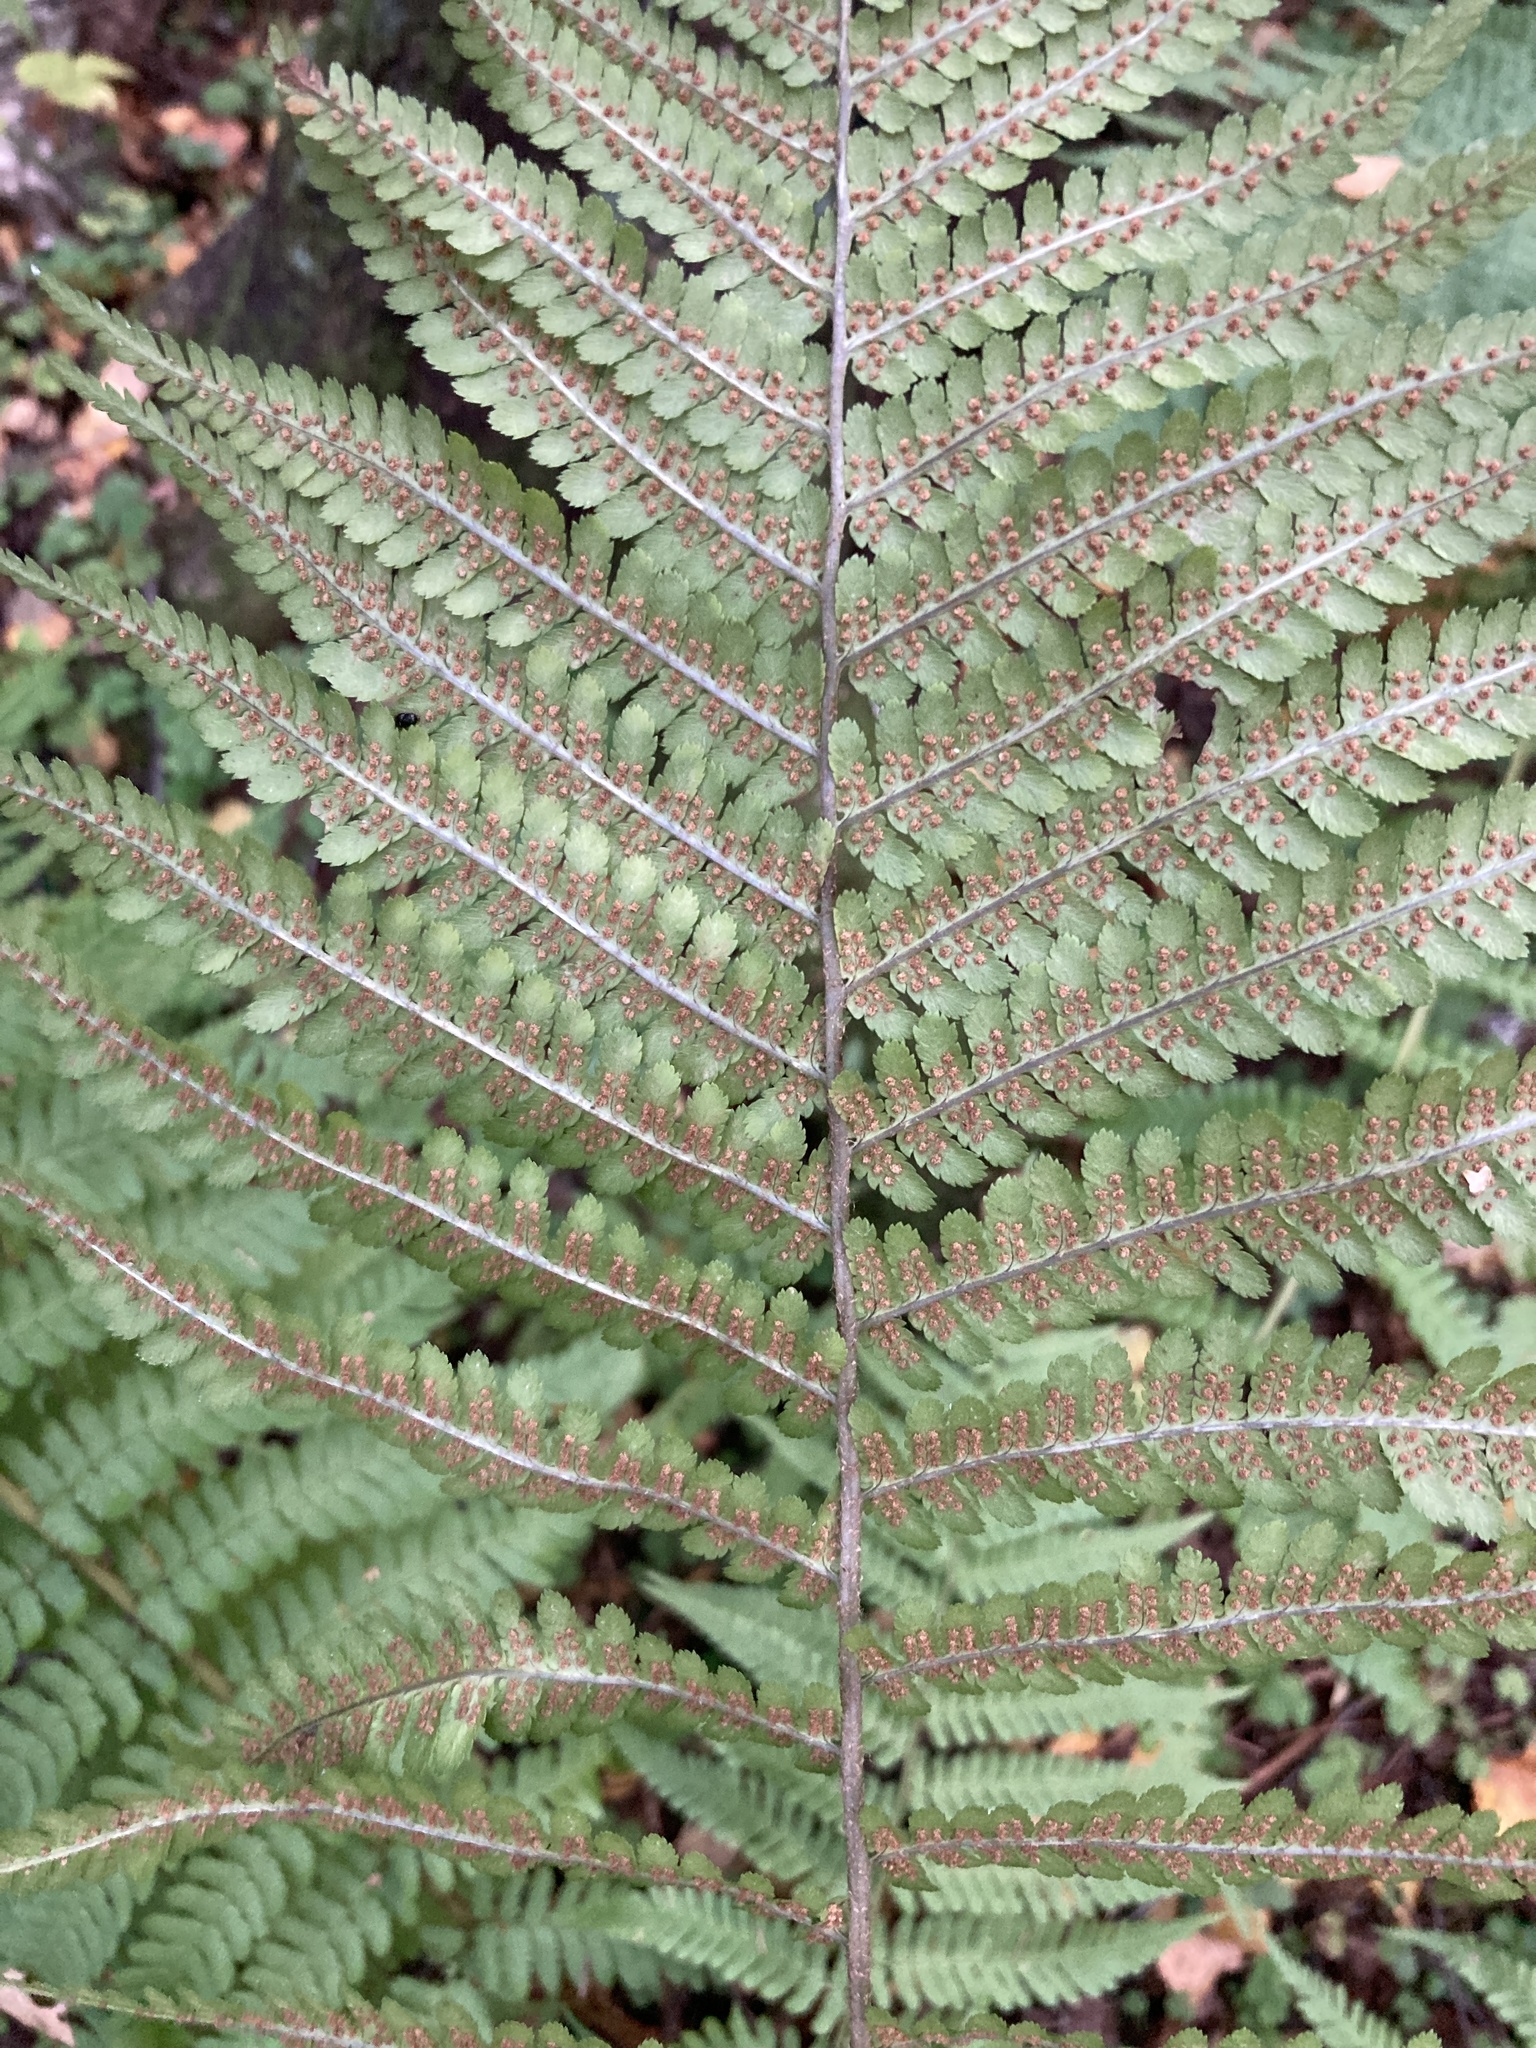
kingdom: Plantae
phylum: Tracheophyta
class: Polypodiopsida
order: Polypodiales
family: Dryopteridaceae
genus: Dryopteris
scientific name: Dryopteris filix-mas
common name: Male fern
